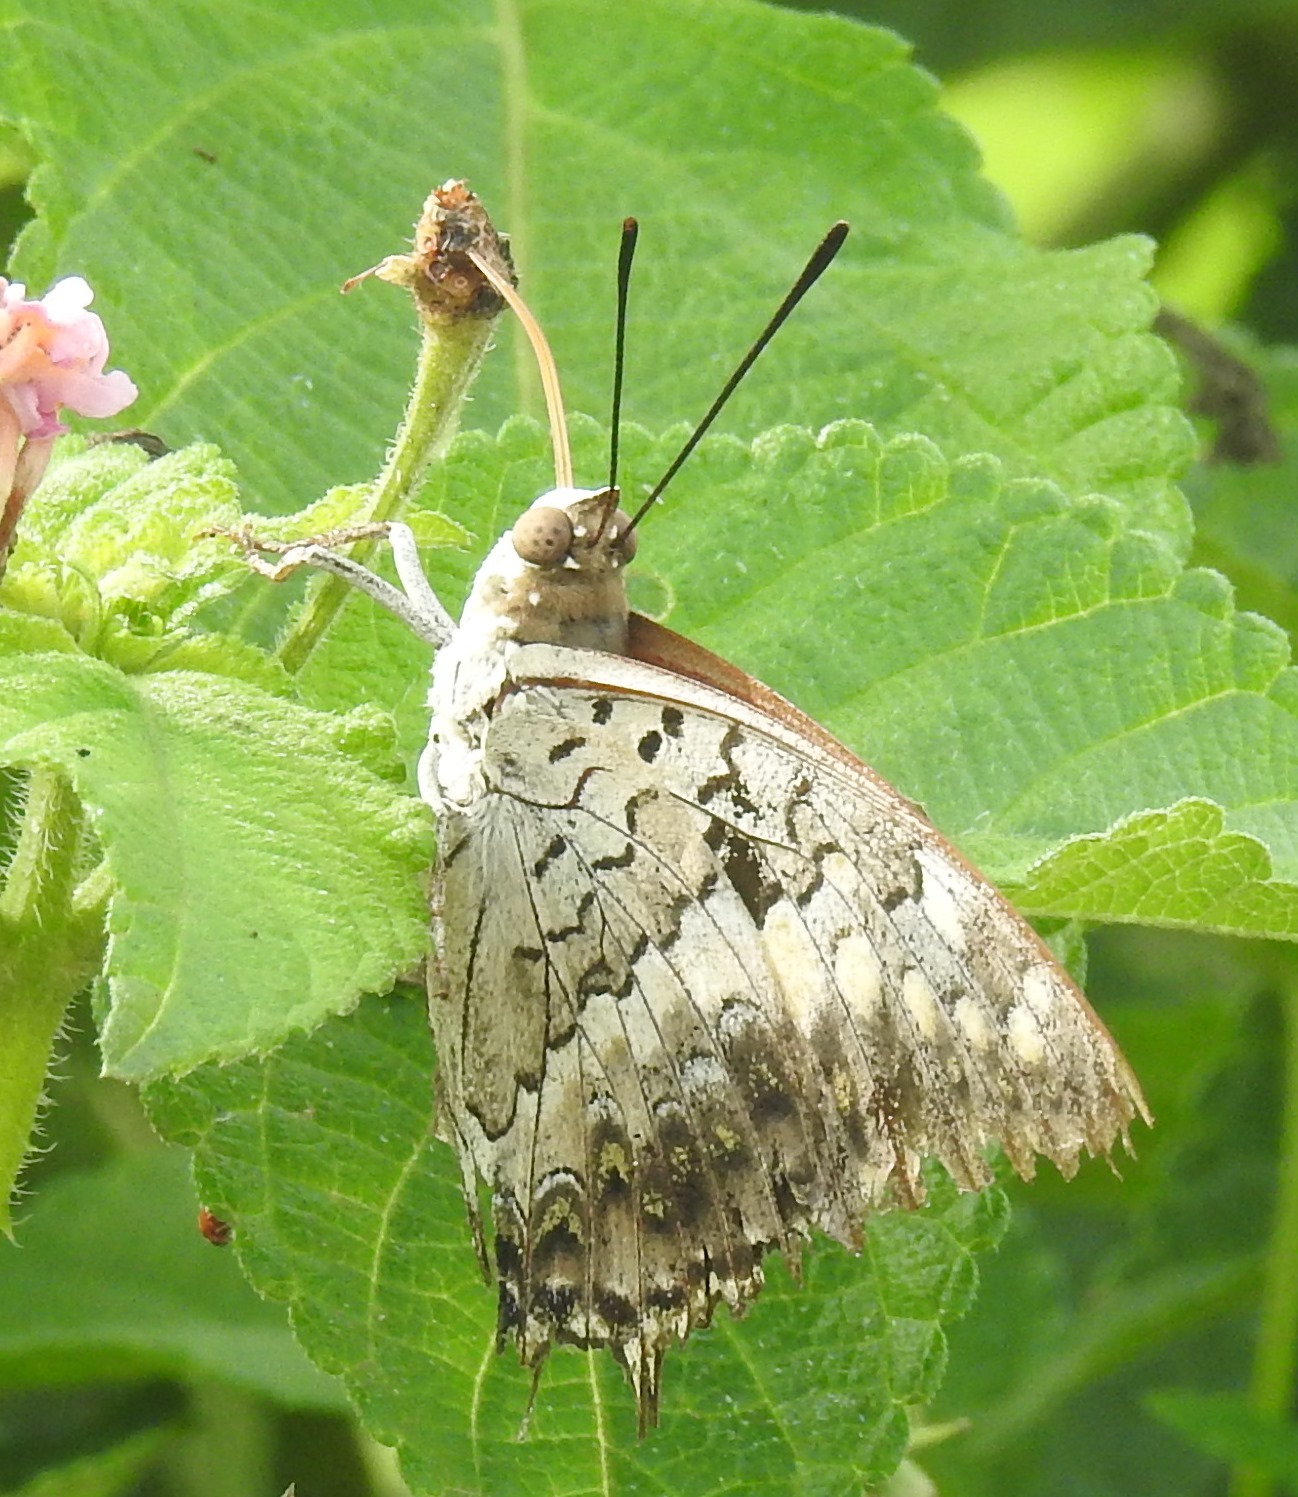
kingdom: Animalia
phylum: Arthropoda
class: Insecta
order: Lepidoptera
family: Nymphalidae
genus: Charaxes
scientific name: Charaxes solon
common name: Black rajah
